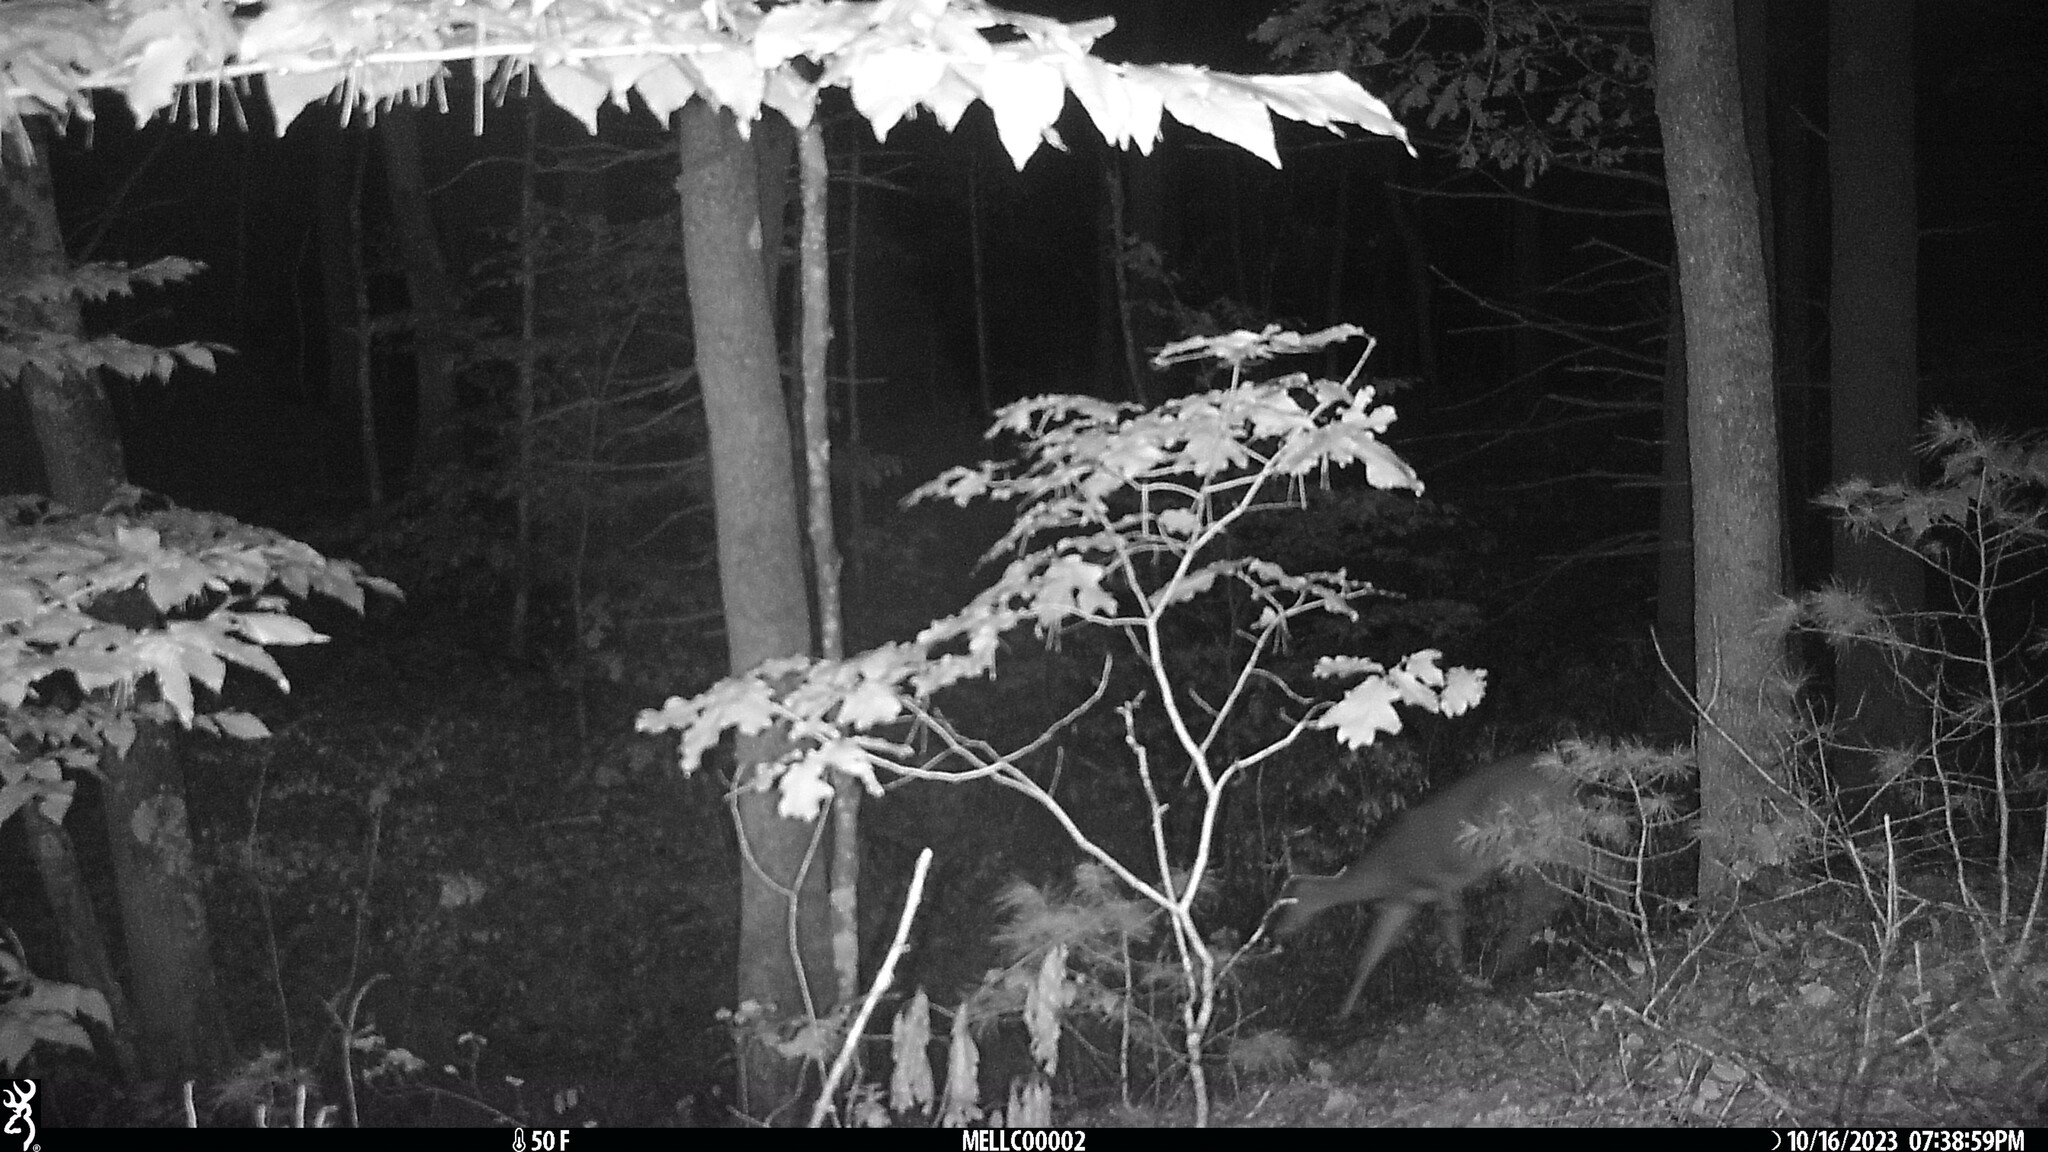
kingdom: Animalia
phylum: Chordata
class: Mammalia
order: Artiodactyla
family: Cervidae
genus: Odocoileus
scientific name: Odocoileus virginianus
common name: White-tailed deer
